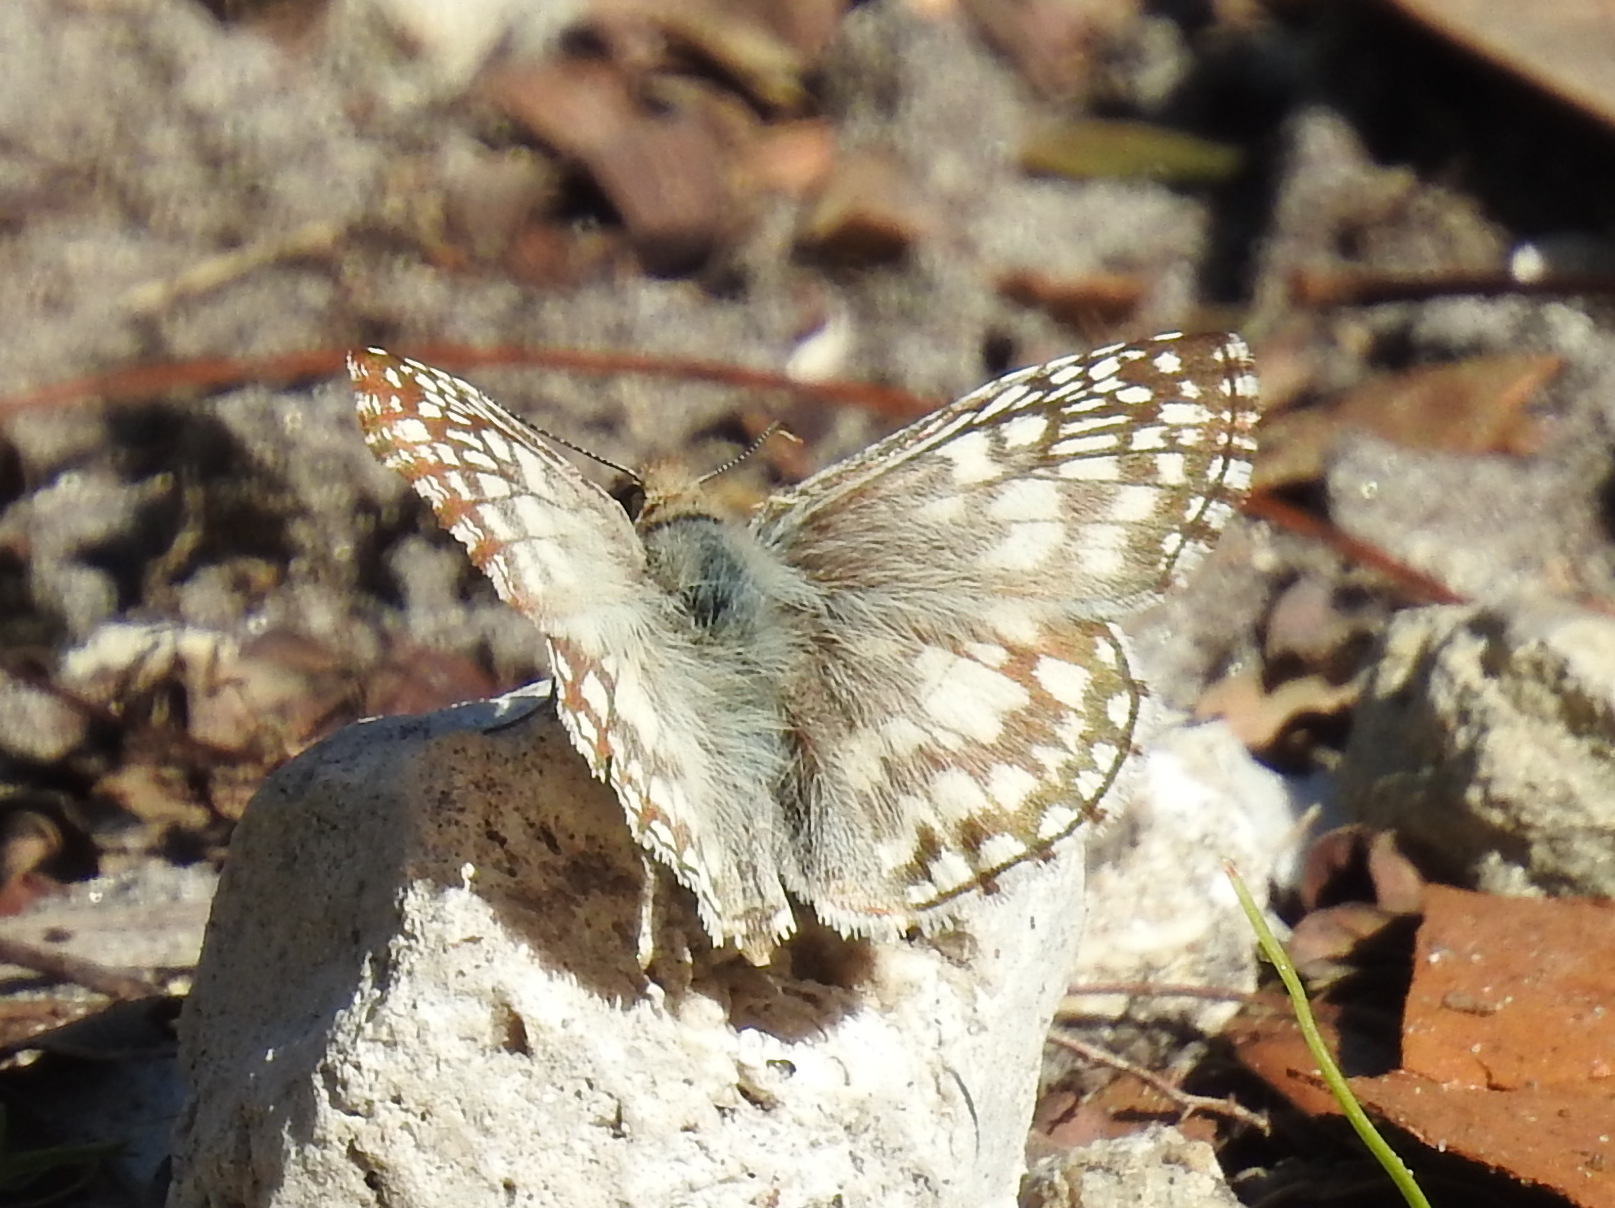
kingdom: Animalia
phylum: Arthropoda
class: Insecta
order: Lepidoptera
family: Hesperiidae
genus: Pyrgus
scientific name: Pyrgus oileus
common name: Tropical checkered-skipper
